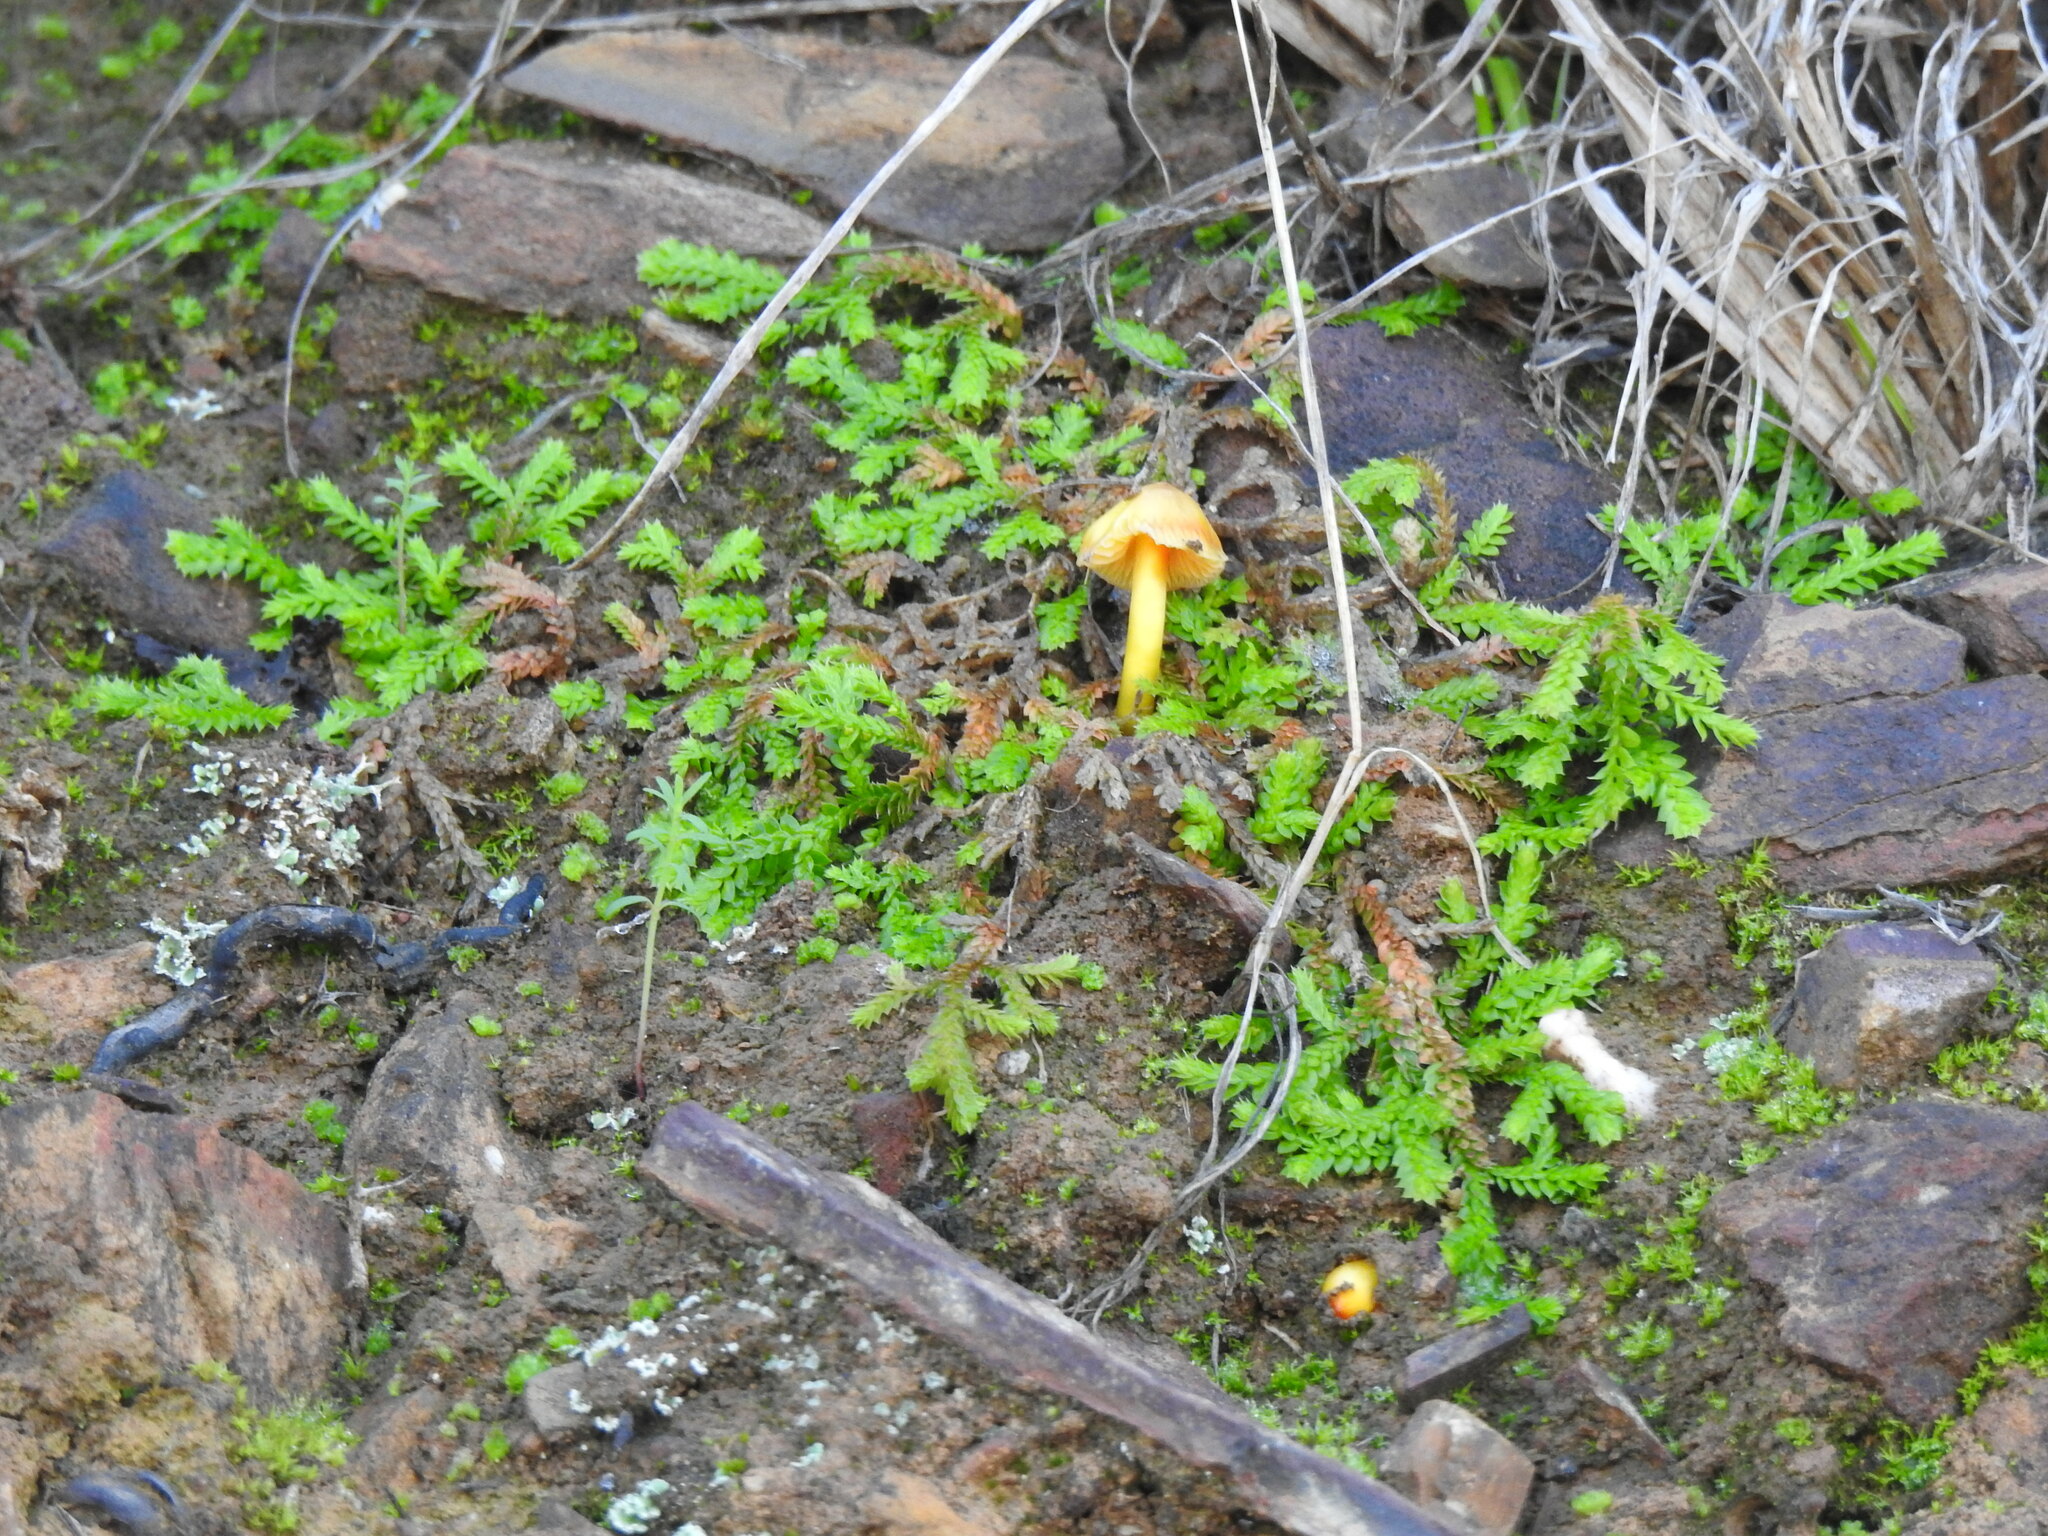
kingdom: Plantae
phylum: Tracheophyta
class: Lycopodiopsida
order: Selaginellales
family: Selaginellaceae
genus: Selaginella
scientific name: Selaginella denticulata
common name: Toothed-leaved clubmoss
